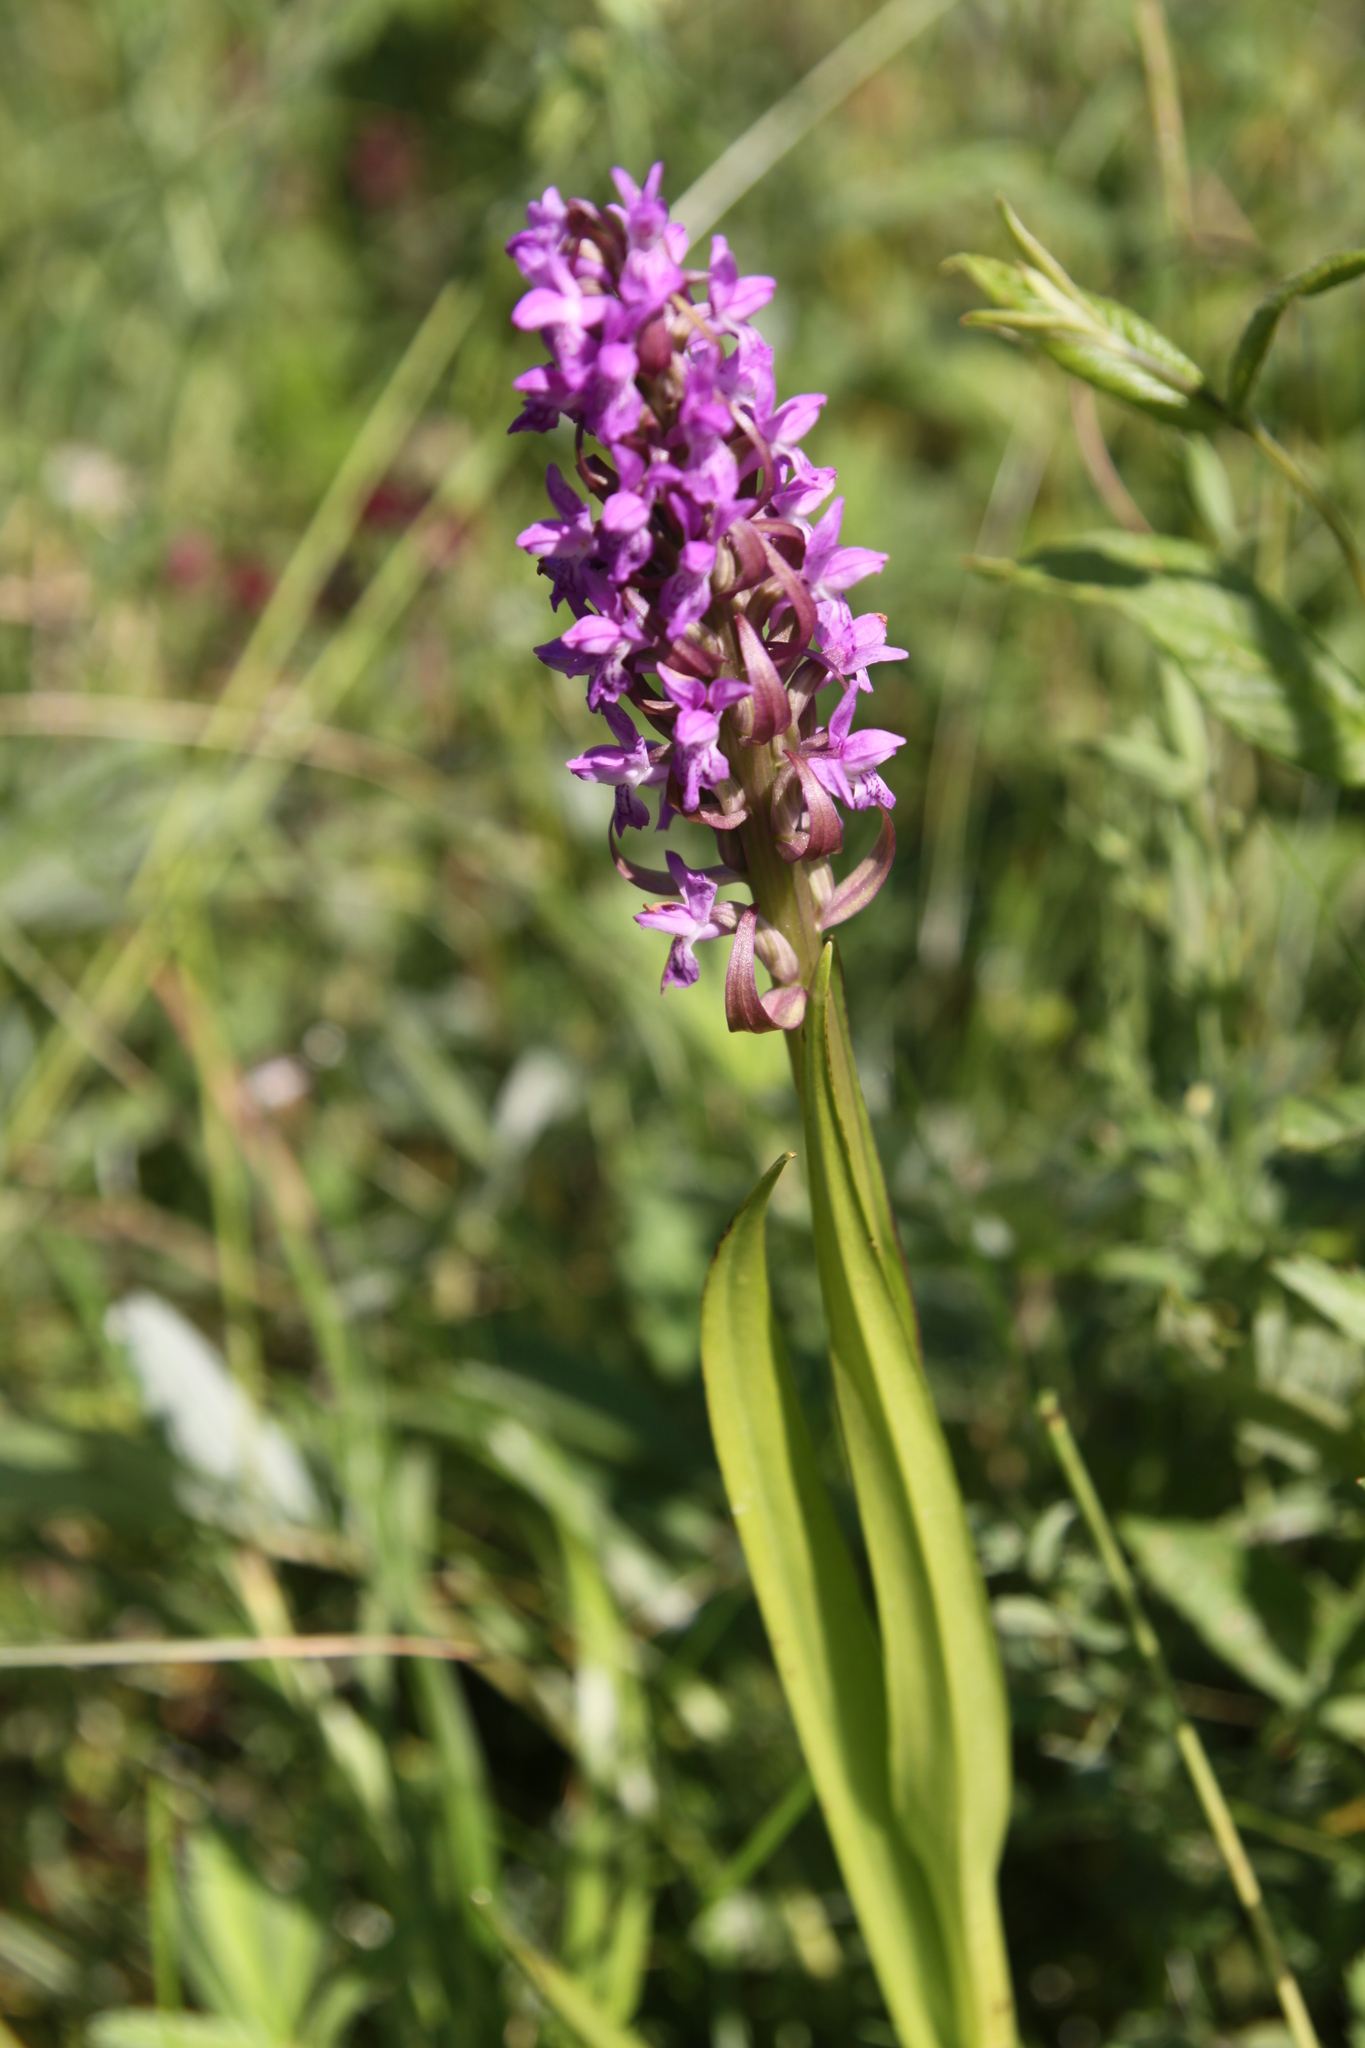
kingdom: Plantae
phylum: Tracheophyta
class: Liliopsida
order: Asparagales
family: Orchidaceae
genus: Dactylorhiza
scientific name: Dactylorhiza incarnata
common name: Early marsh-orchid
